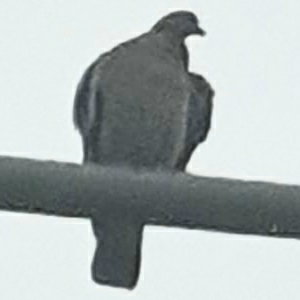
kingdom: Animalia
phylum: Chordata
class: Aves
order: Columbiformes
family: Columbidae
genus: Columba
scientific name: Columba palumbus
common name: Common wood pigeon
